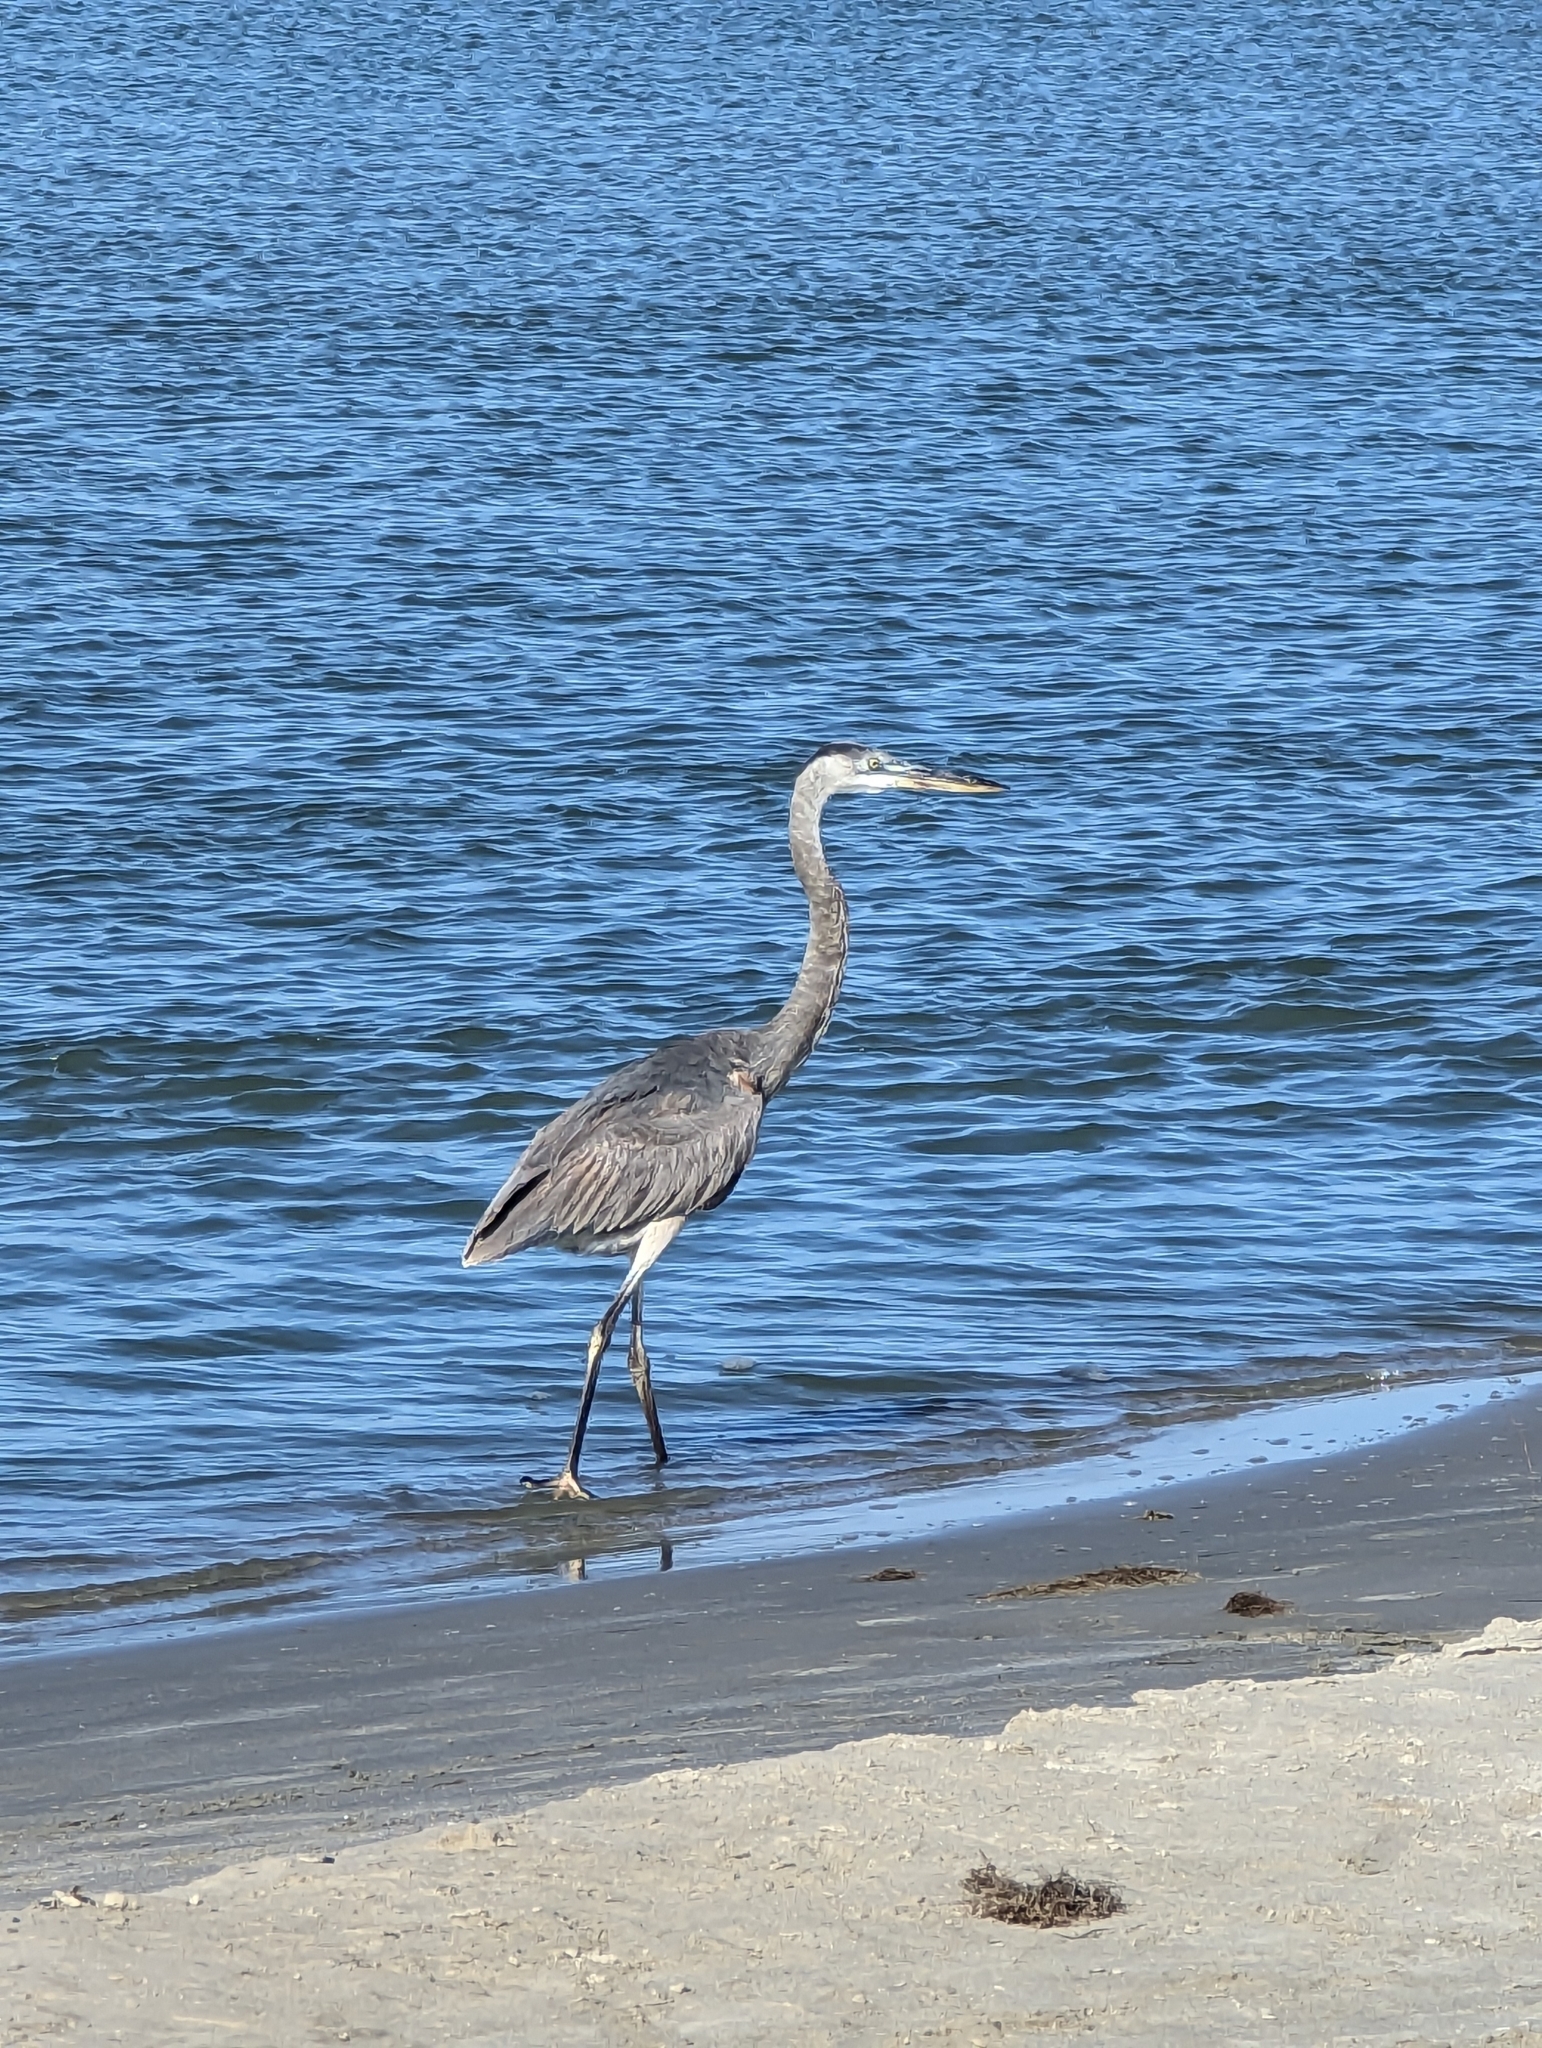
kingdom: Animalia
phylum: Chordata
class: Aves
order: Pelecaniformes
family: Ardeidae
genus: Ardea
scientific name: Ardea herodias
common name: Great blue heron
